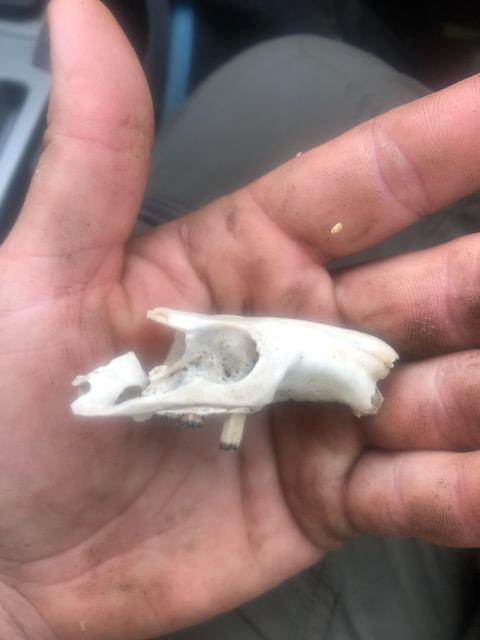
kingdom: Animalia
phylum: Chordata
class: Mammalia
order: Rodentia
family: Aplodontiidae
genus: Aplodontia
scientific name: Aplodontia rufa
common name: Mountain beaver
